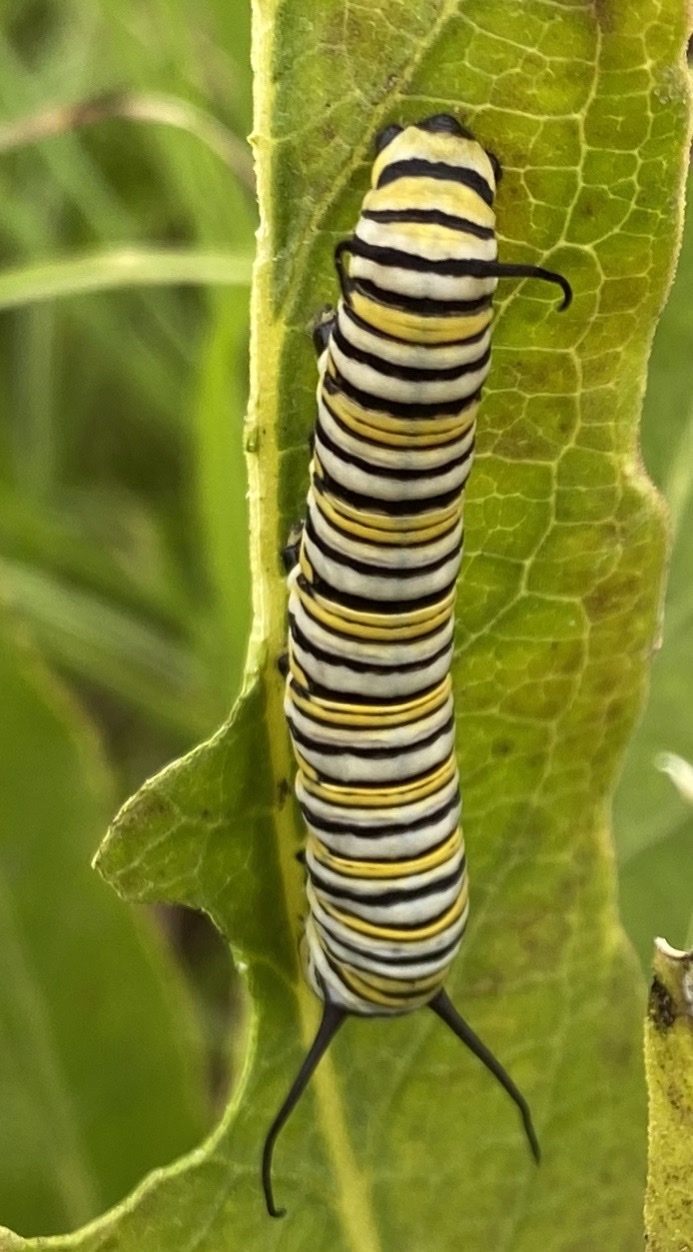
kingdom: Animalia
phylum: Arthropoda
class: Insecta
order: Lepidoptera
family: Nymphalidae
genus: Danaus
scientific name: Danaus plexippus
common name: Monarch
